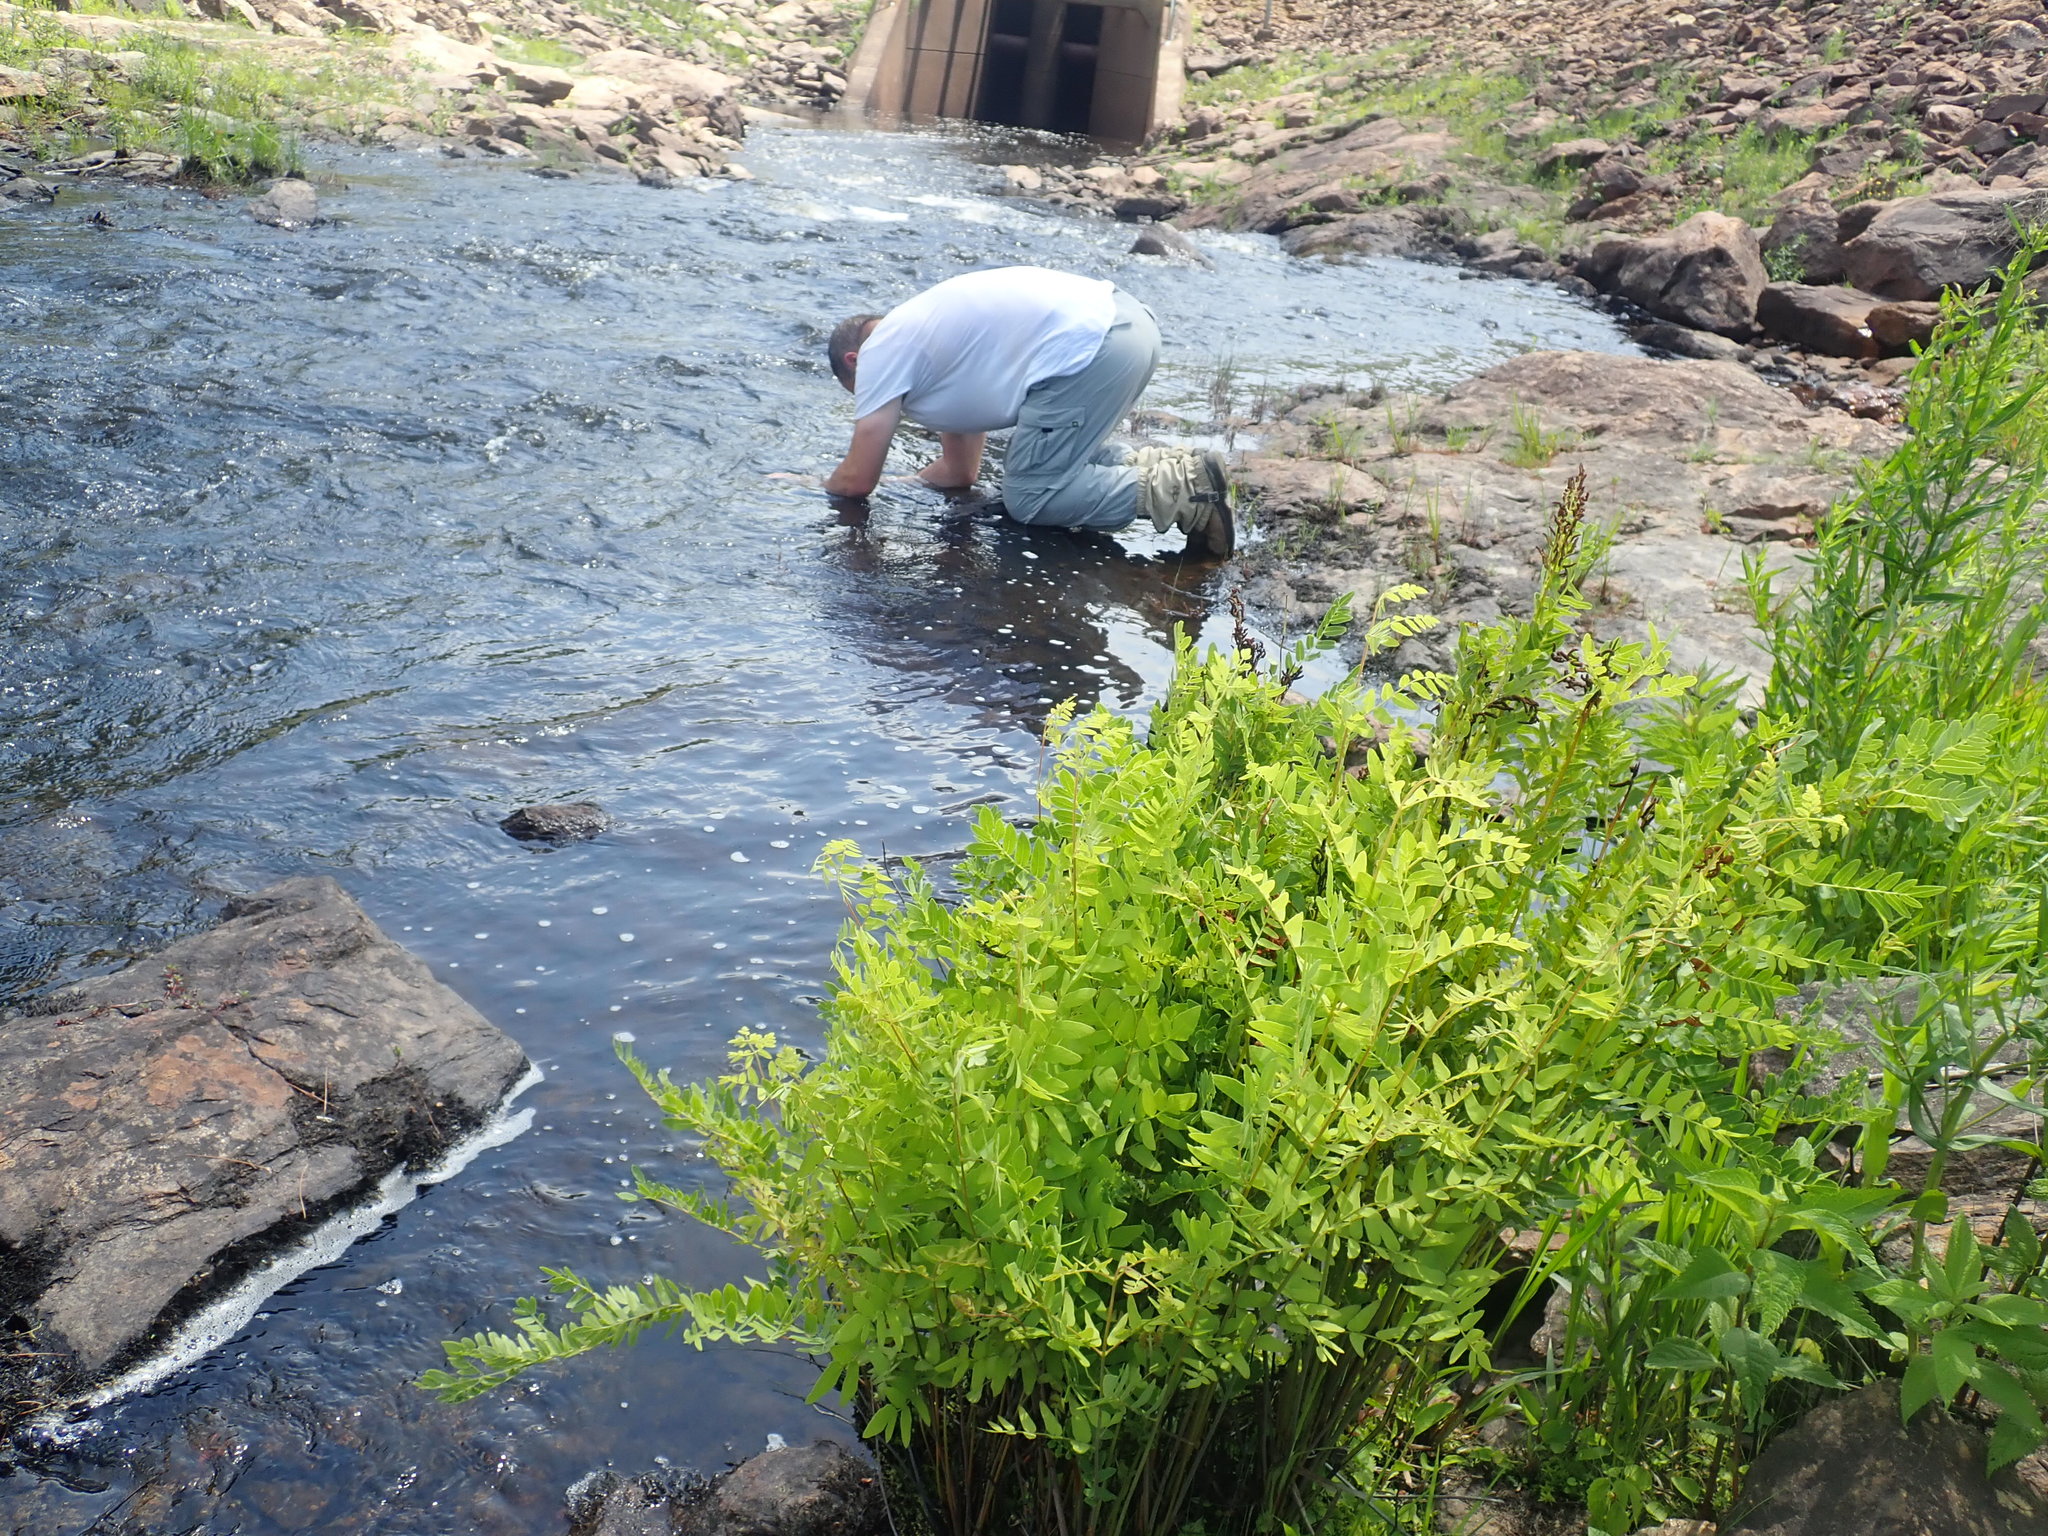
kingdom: Plantae
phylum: Tracheophyta
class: Polypodiopsida
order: Osmundales
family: Osmundaceae
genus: Osmunda
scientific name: Osmunda spectabilis
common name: American royal fern
